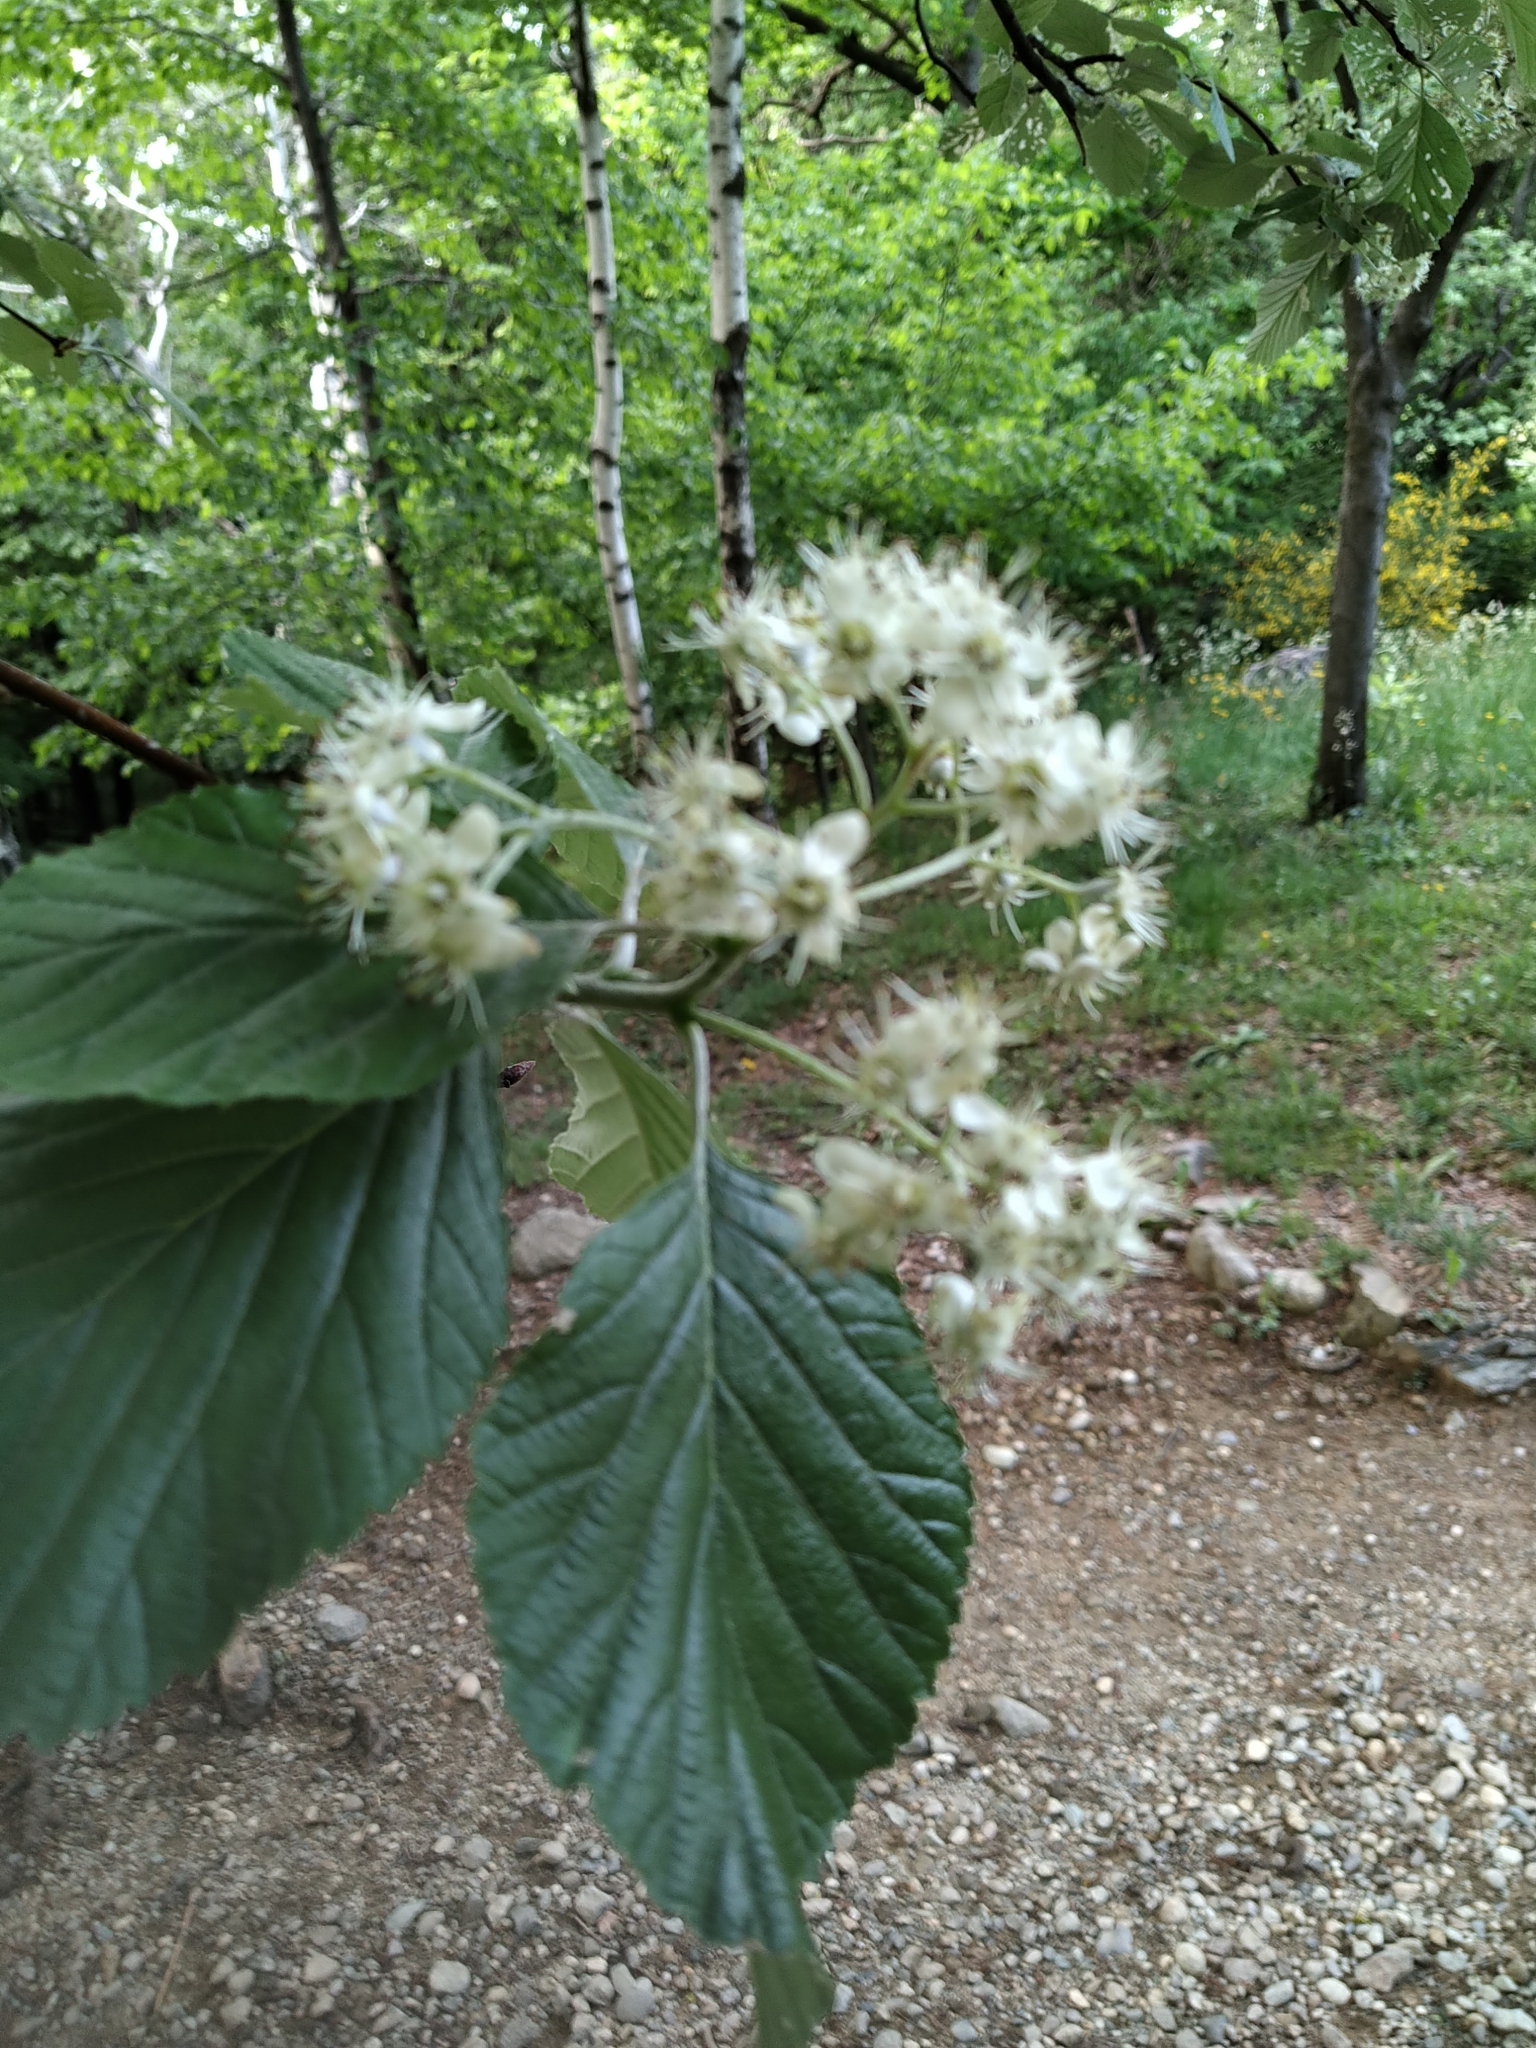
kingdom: Plantae
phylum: Tracheophyta
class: Magnoliopsida
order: Rosales
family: Rosaceae
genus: Aria
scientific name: Aria edulis
